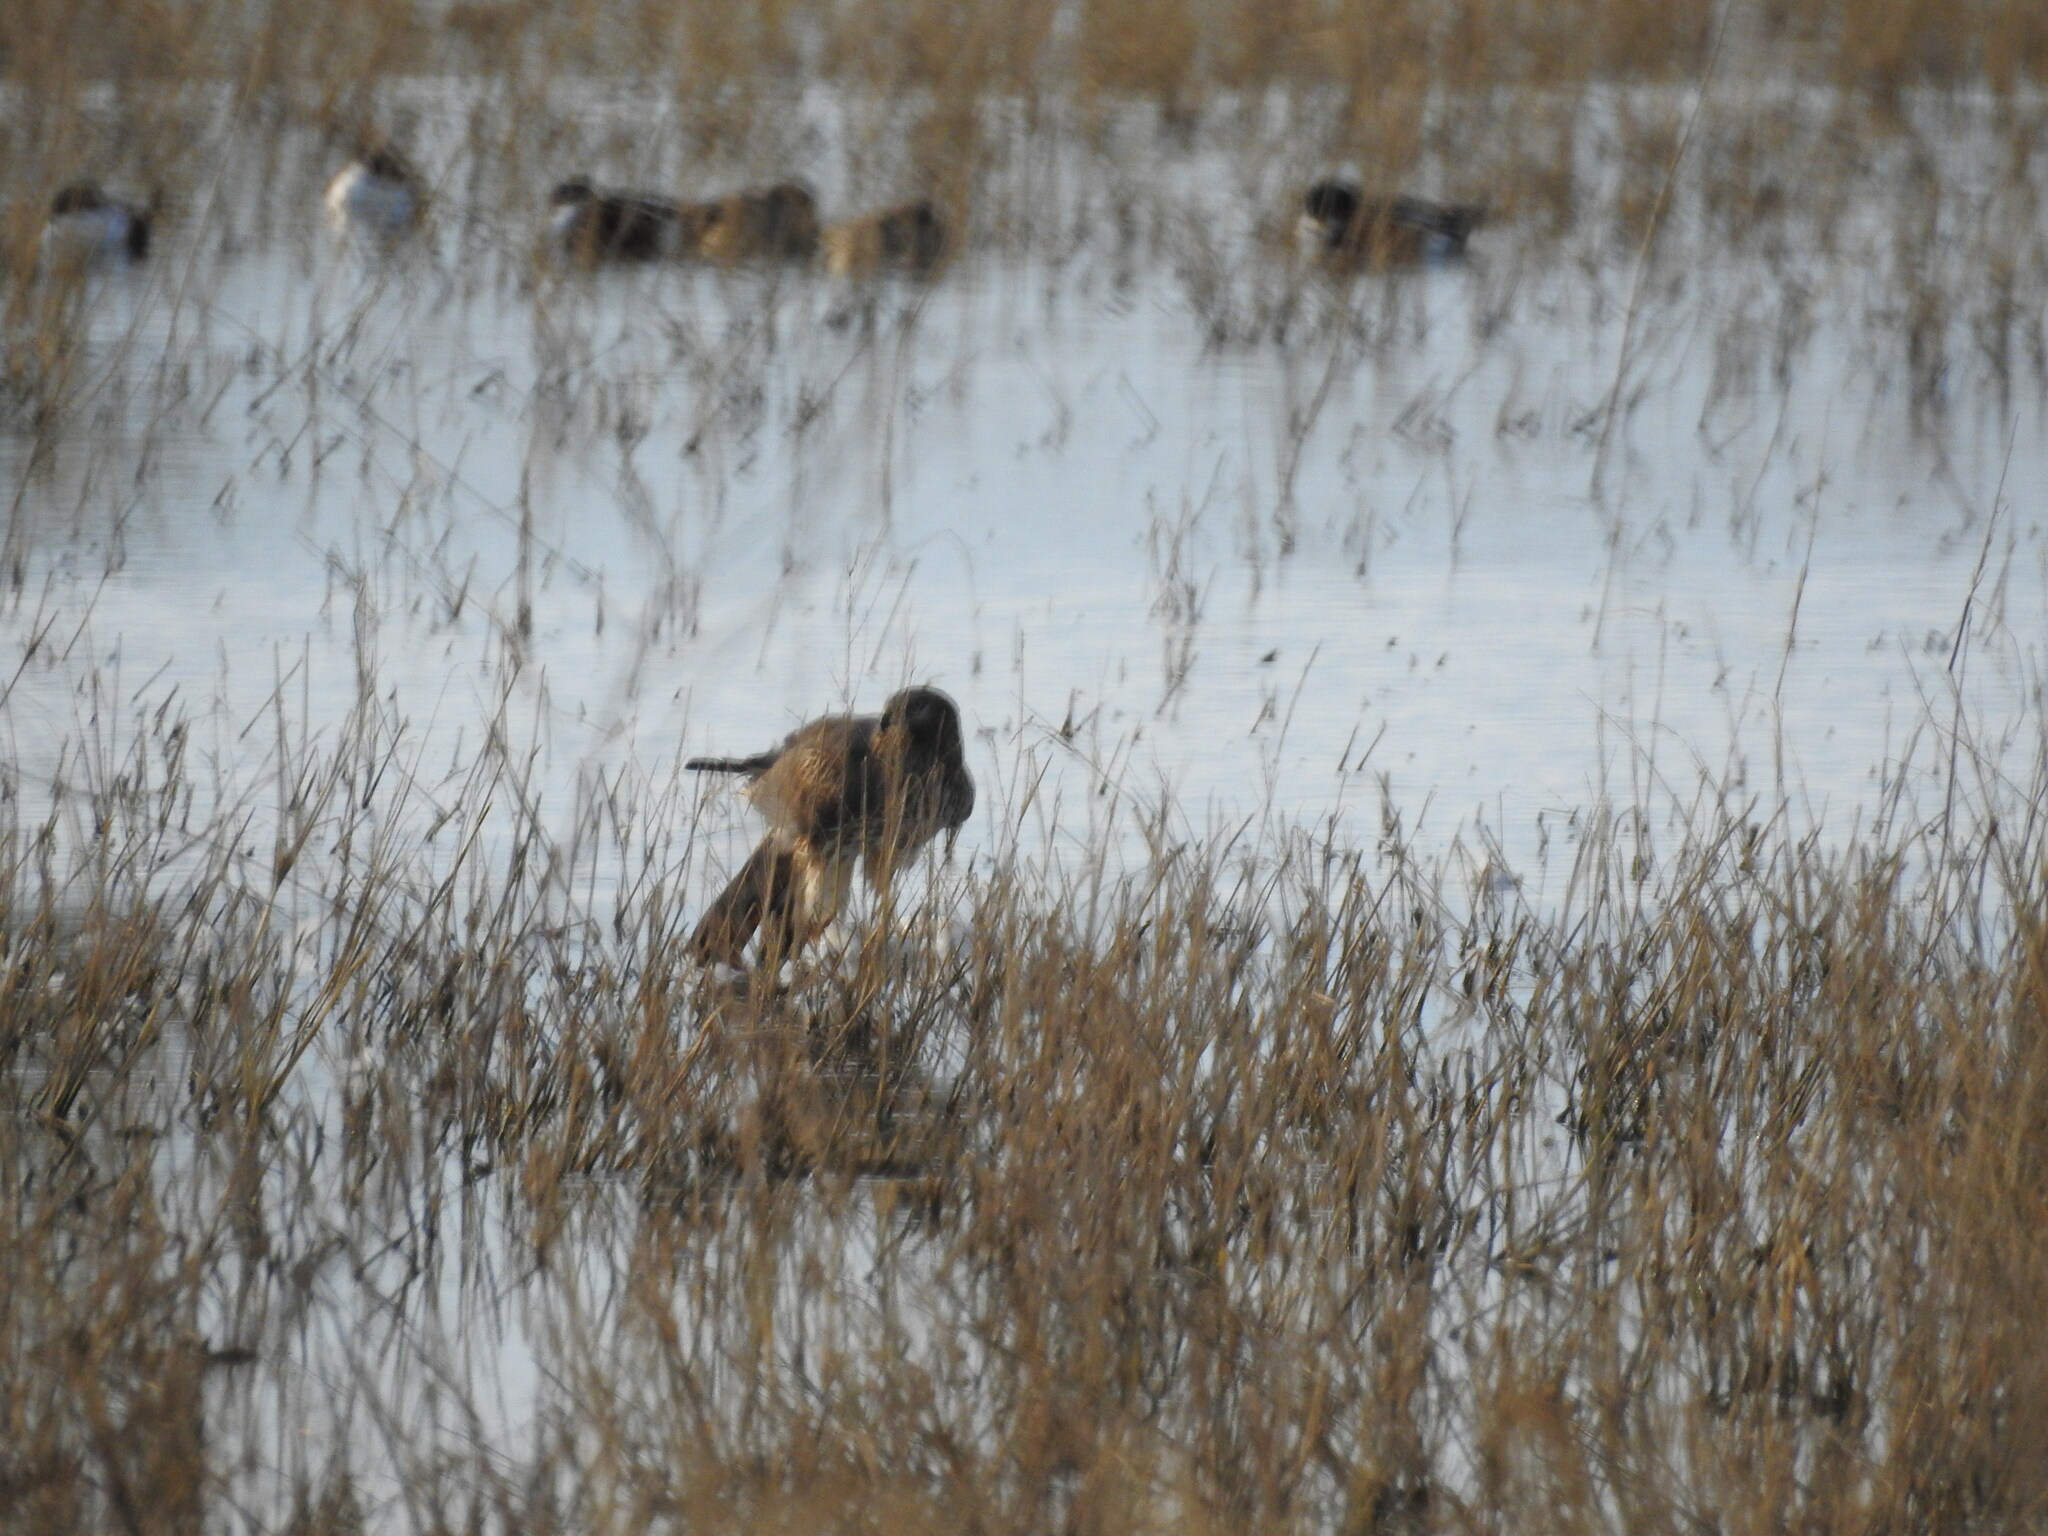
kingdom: Animalia
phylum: Chordata
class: Aves
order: Accipitriformes
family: Accipitridae
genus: Circus
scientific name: Circus cyaneus
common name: Hen harrier
